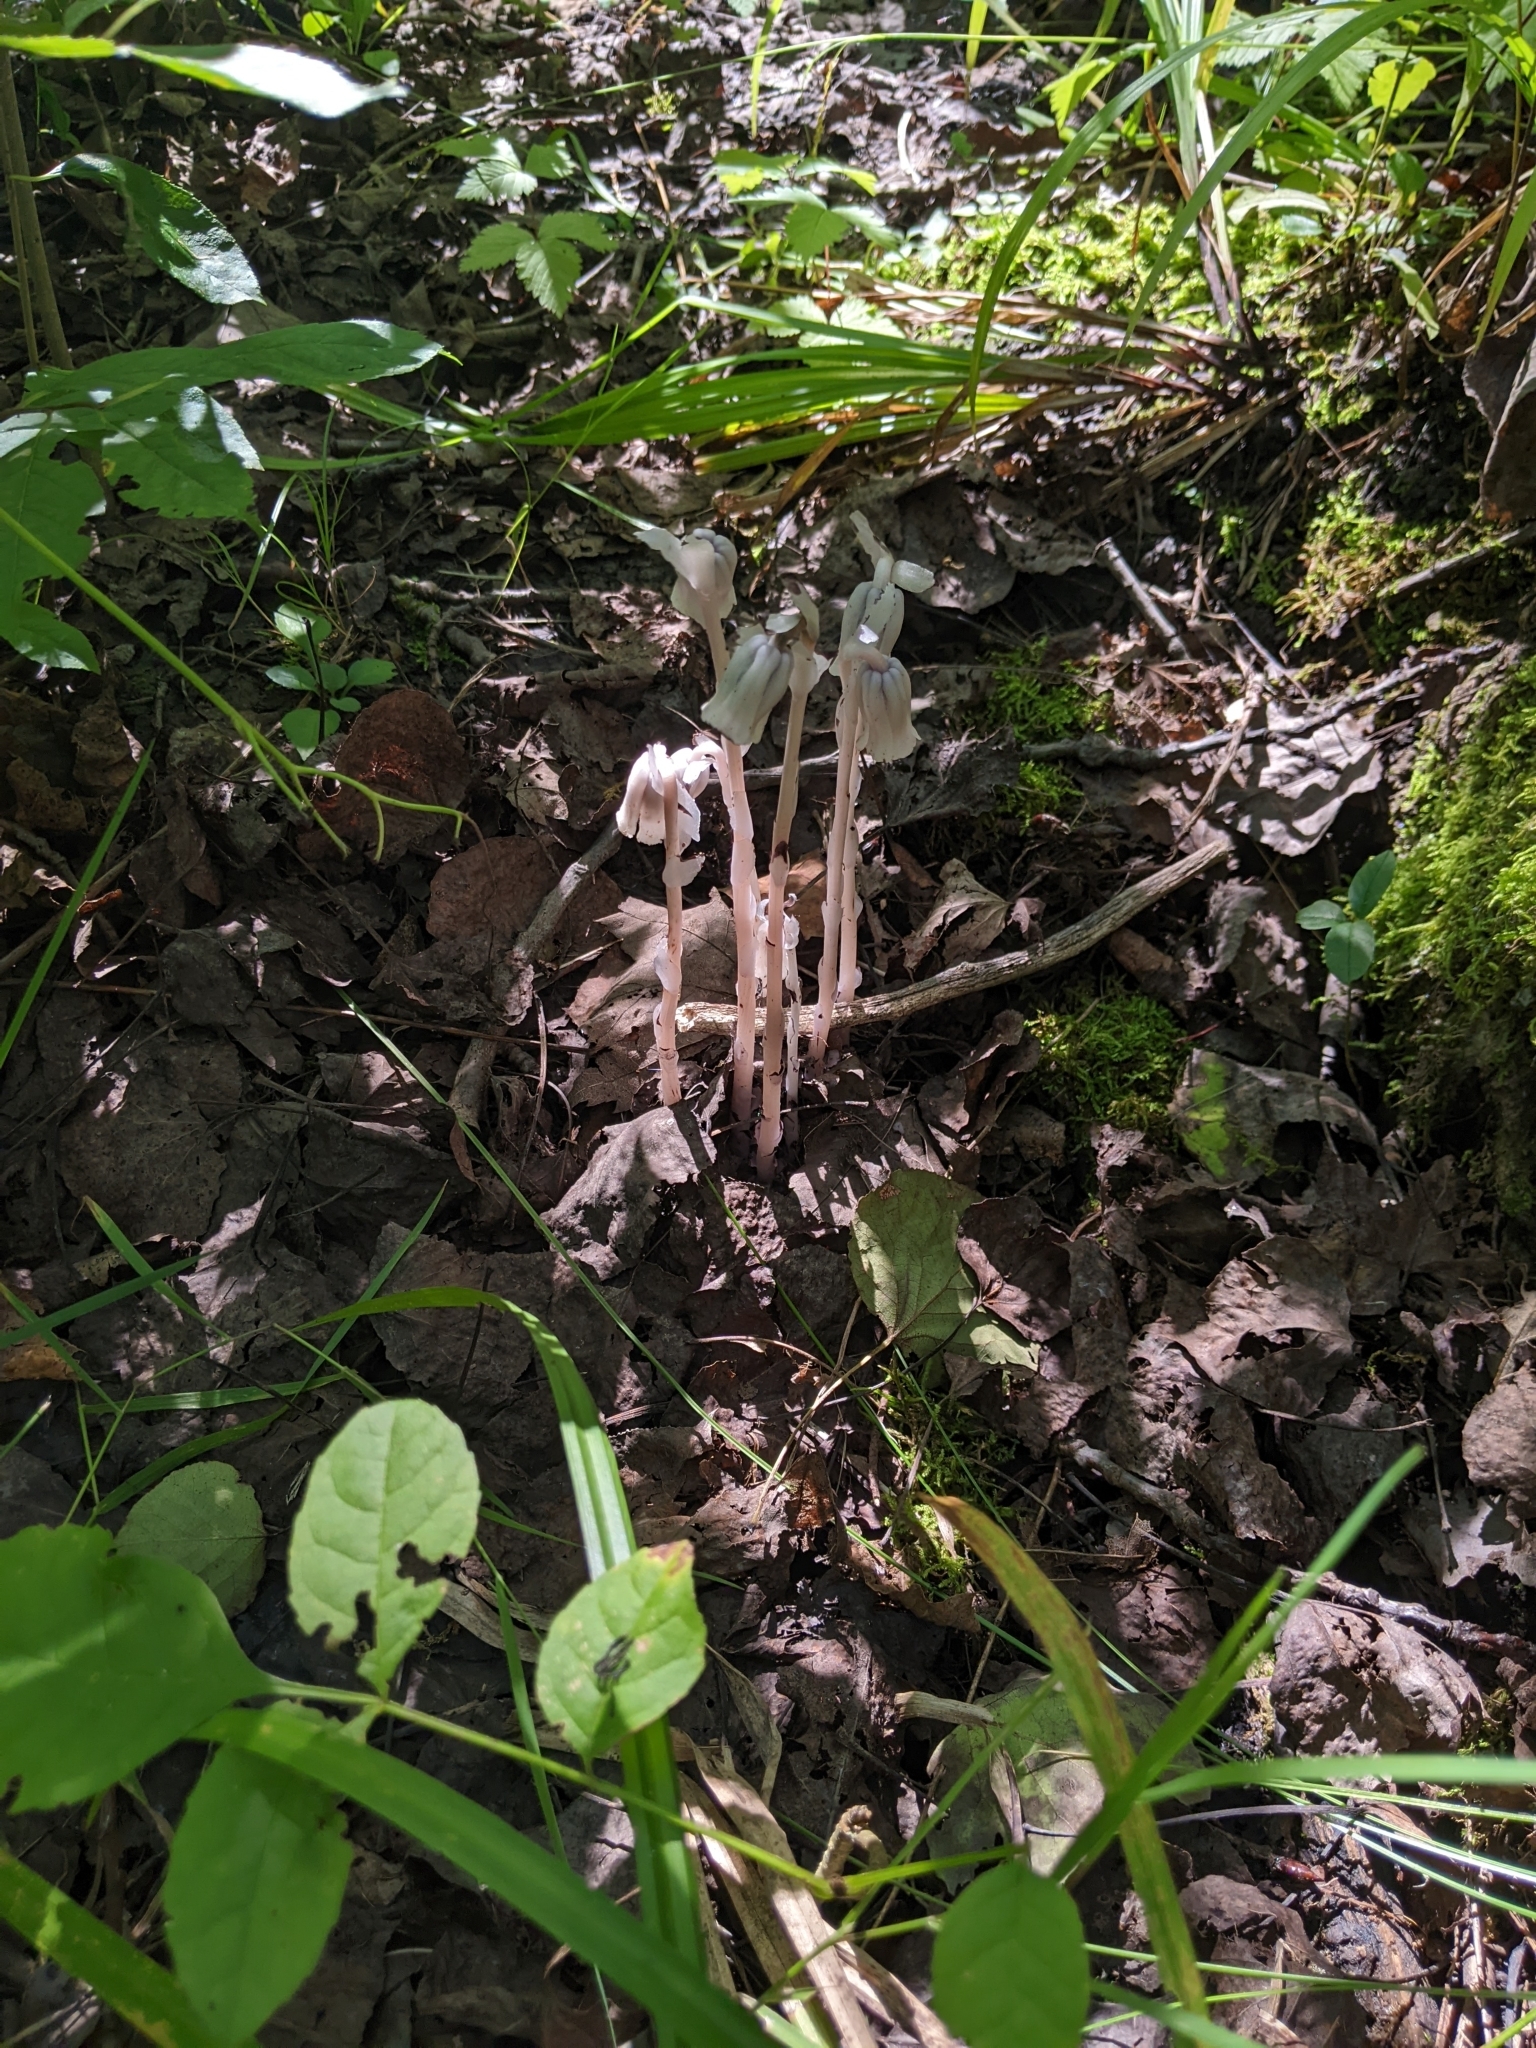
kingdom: Plantae
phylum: Tracheophyta
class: Magnoliopsida
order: Ericales
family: Ericaceae
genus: Monotropa
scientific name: Monotropa uniflora
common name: Convulsion root
